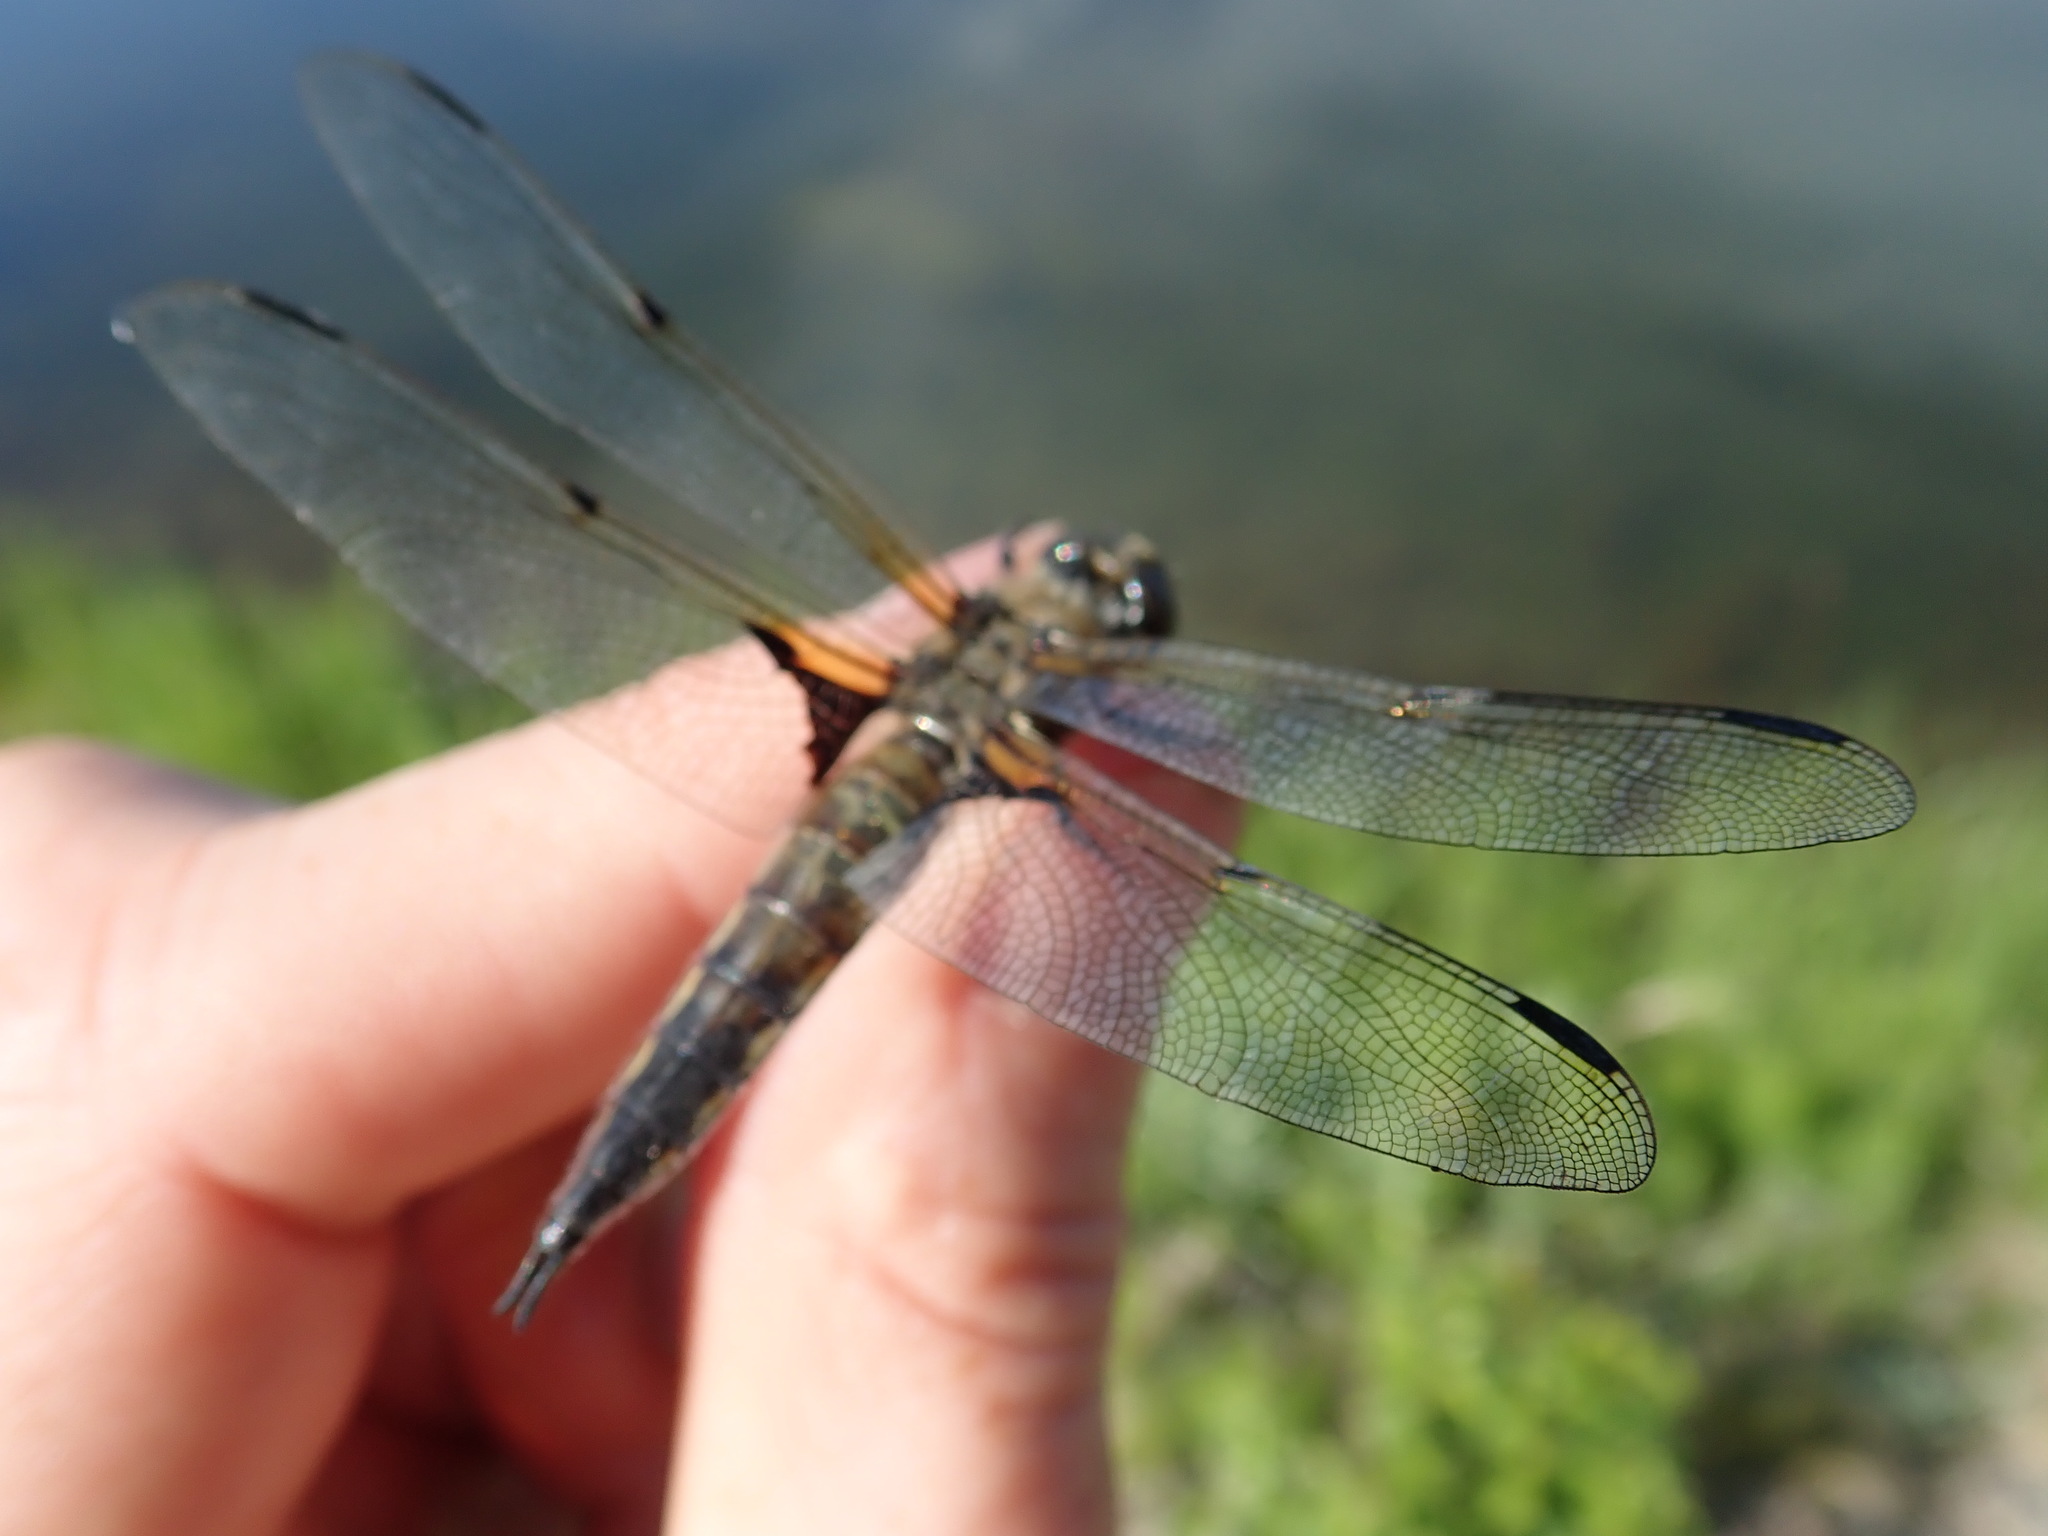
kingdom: Animalia
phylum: Arthropoda
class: Insecta
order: Odonata
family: Libellulidae
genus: Libellula
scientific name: Libellula quadrimaculata
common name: Four-spotted chaser
